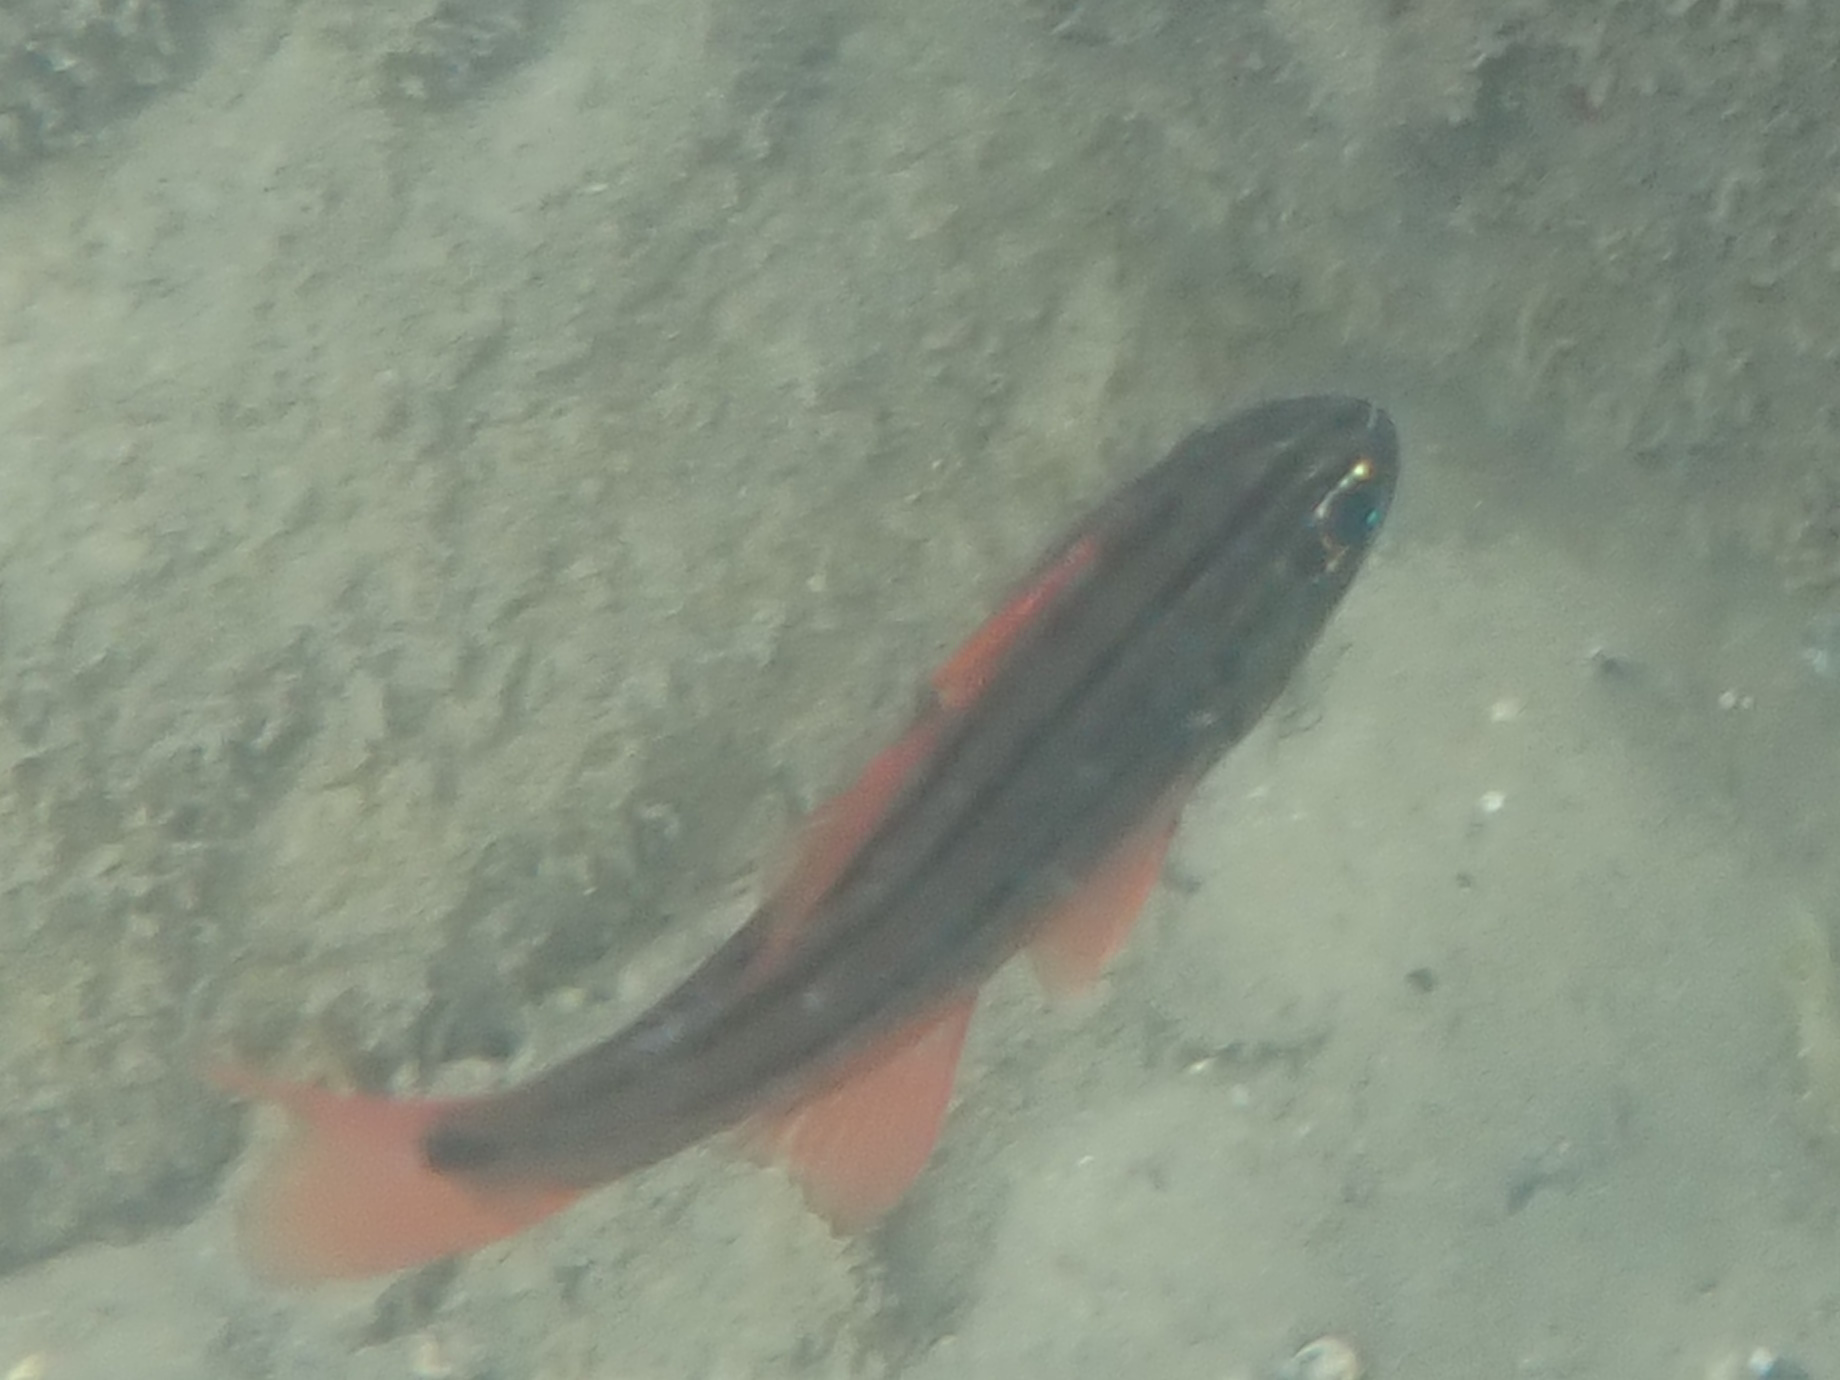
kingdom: Animalia
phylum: Chordata
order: Perciformes
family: Apogonidae
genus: Ostorhinchus
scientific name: Ostorhinchus limenus
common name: Four-banded soldierfish
